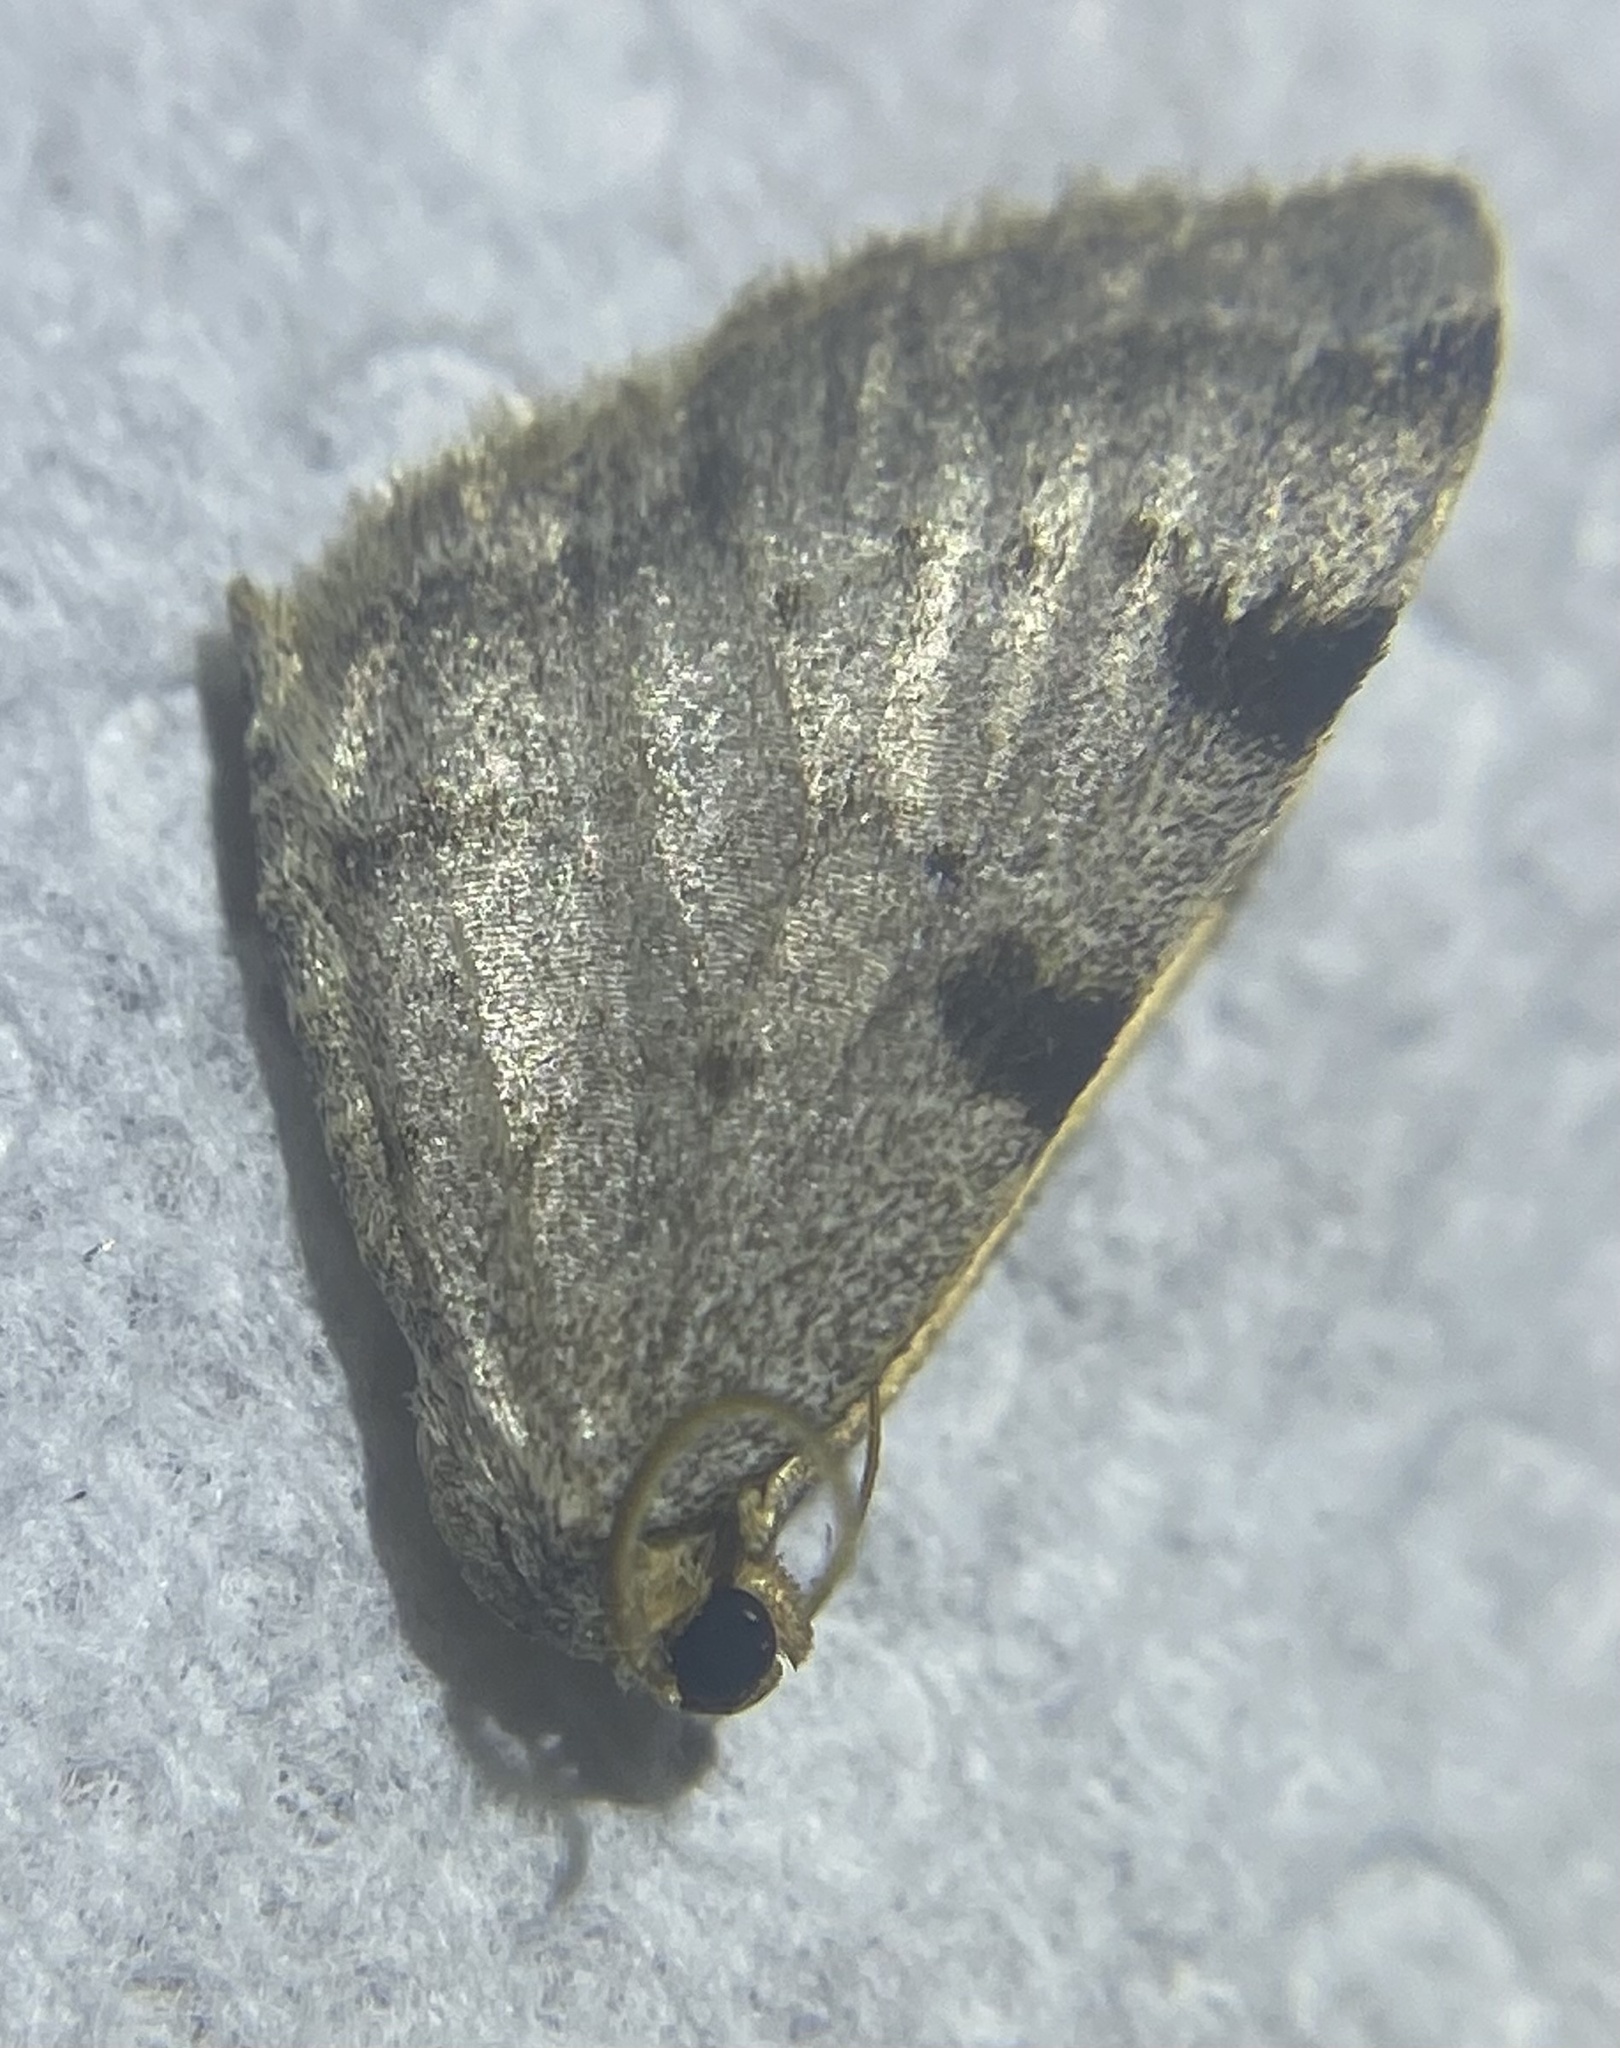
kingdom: Animalia
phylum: Arthropoda
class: Insecta
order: Lepidoptera
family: Geometridae
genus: Heterophleps
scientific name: Heterophleps refusaria
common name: Three-patched bigwing
